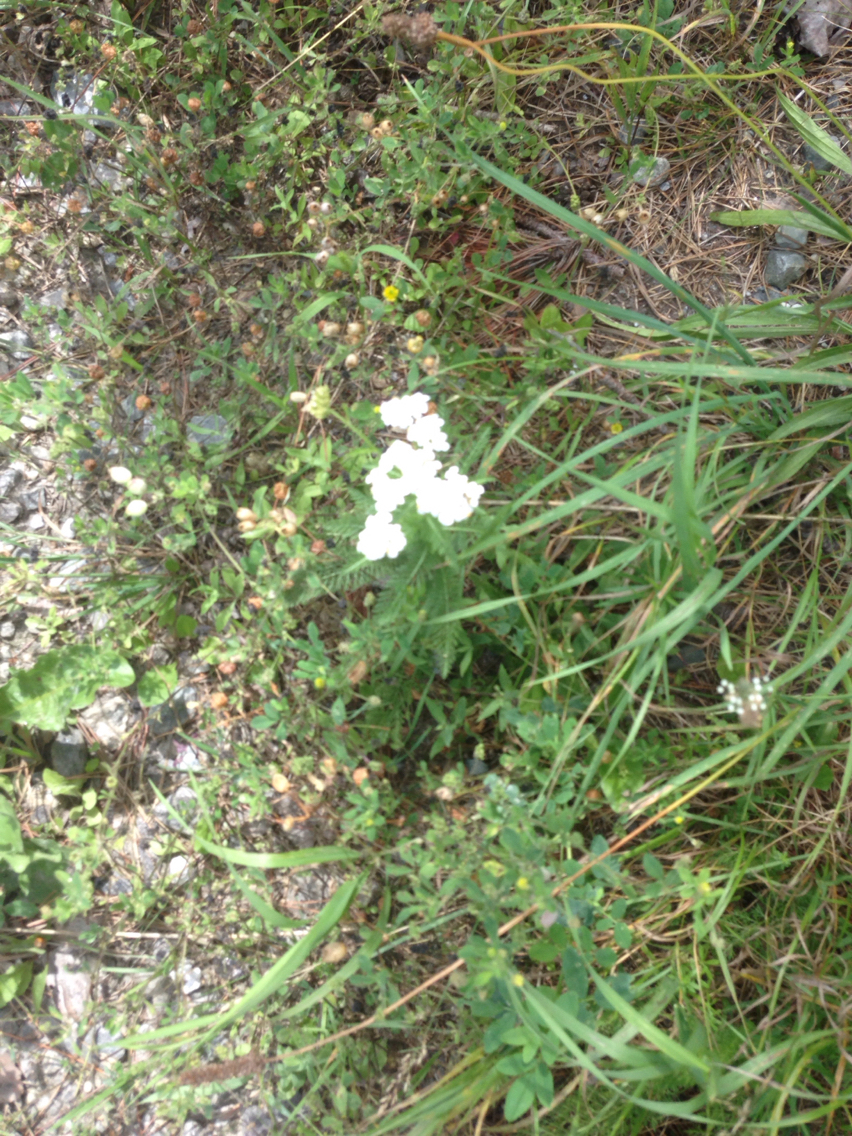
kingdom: Plantae
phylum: Tracheophyta
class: Magnoliopsida
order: Asterales
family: Asteraceae
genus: Achillea
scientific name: Achillea millefolium
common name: Yarrow
